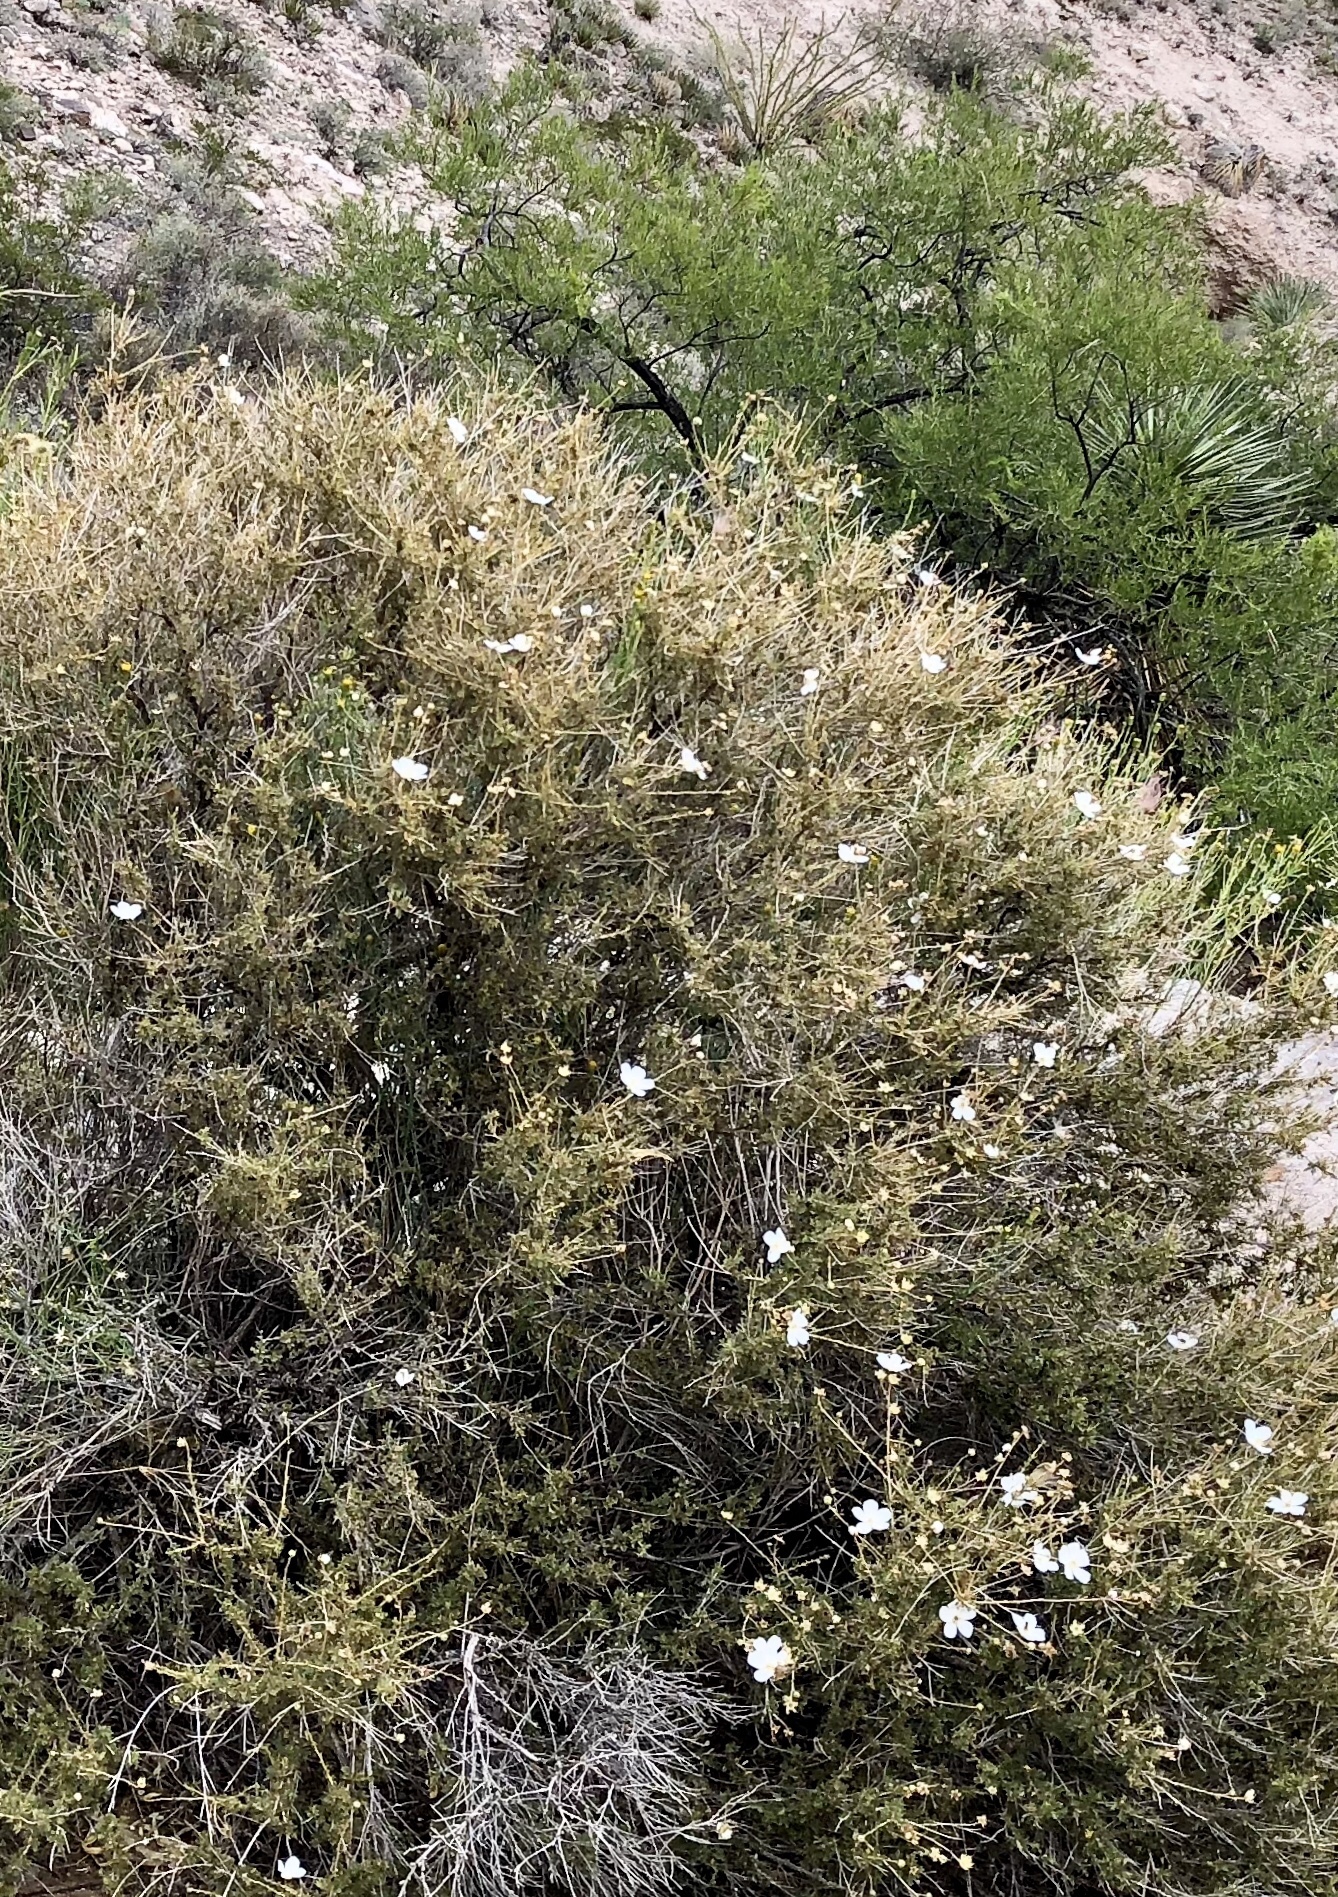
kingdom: Plantae
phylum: Tracheophyta
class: Magnoliopsida
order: Rosales
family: Rosaceae
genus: Fallugia
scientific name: Fallugia paradoxa
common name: Apache-plume
